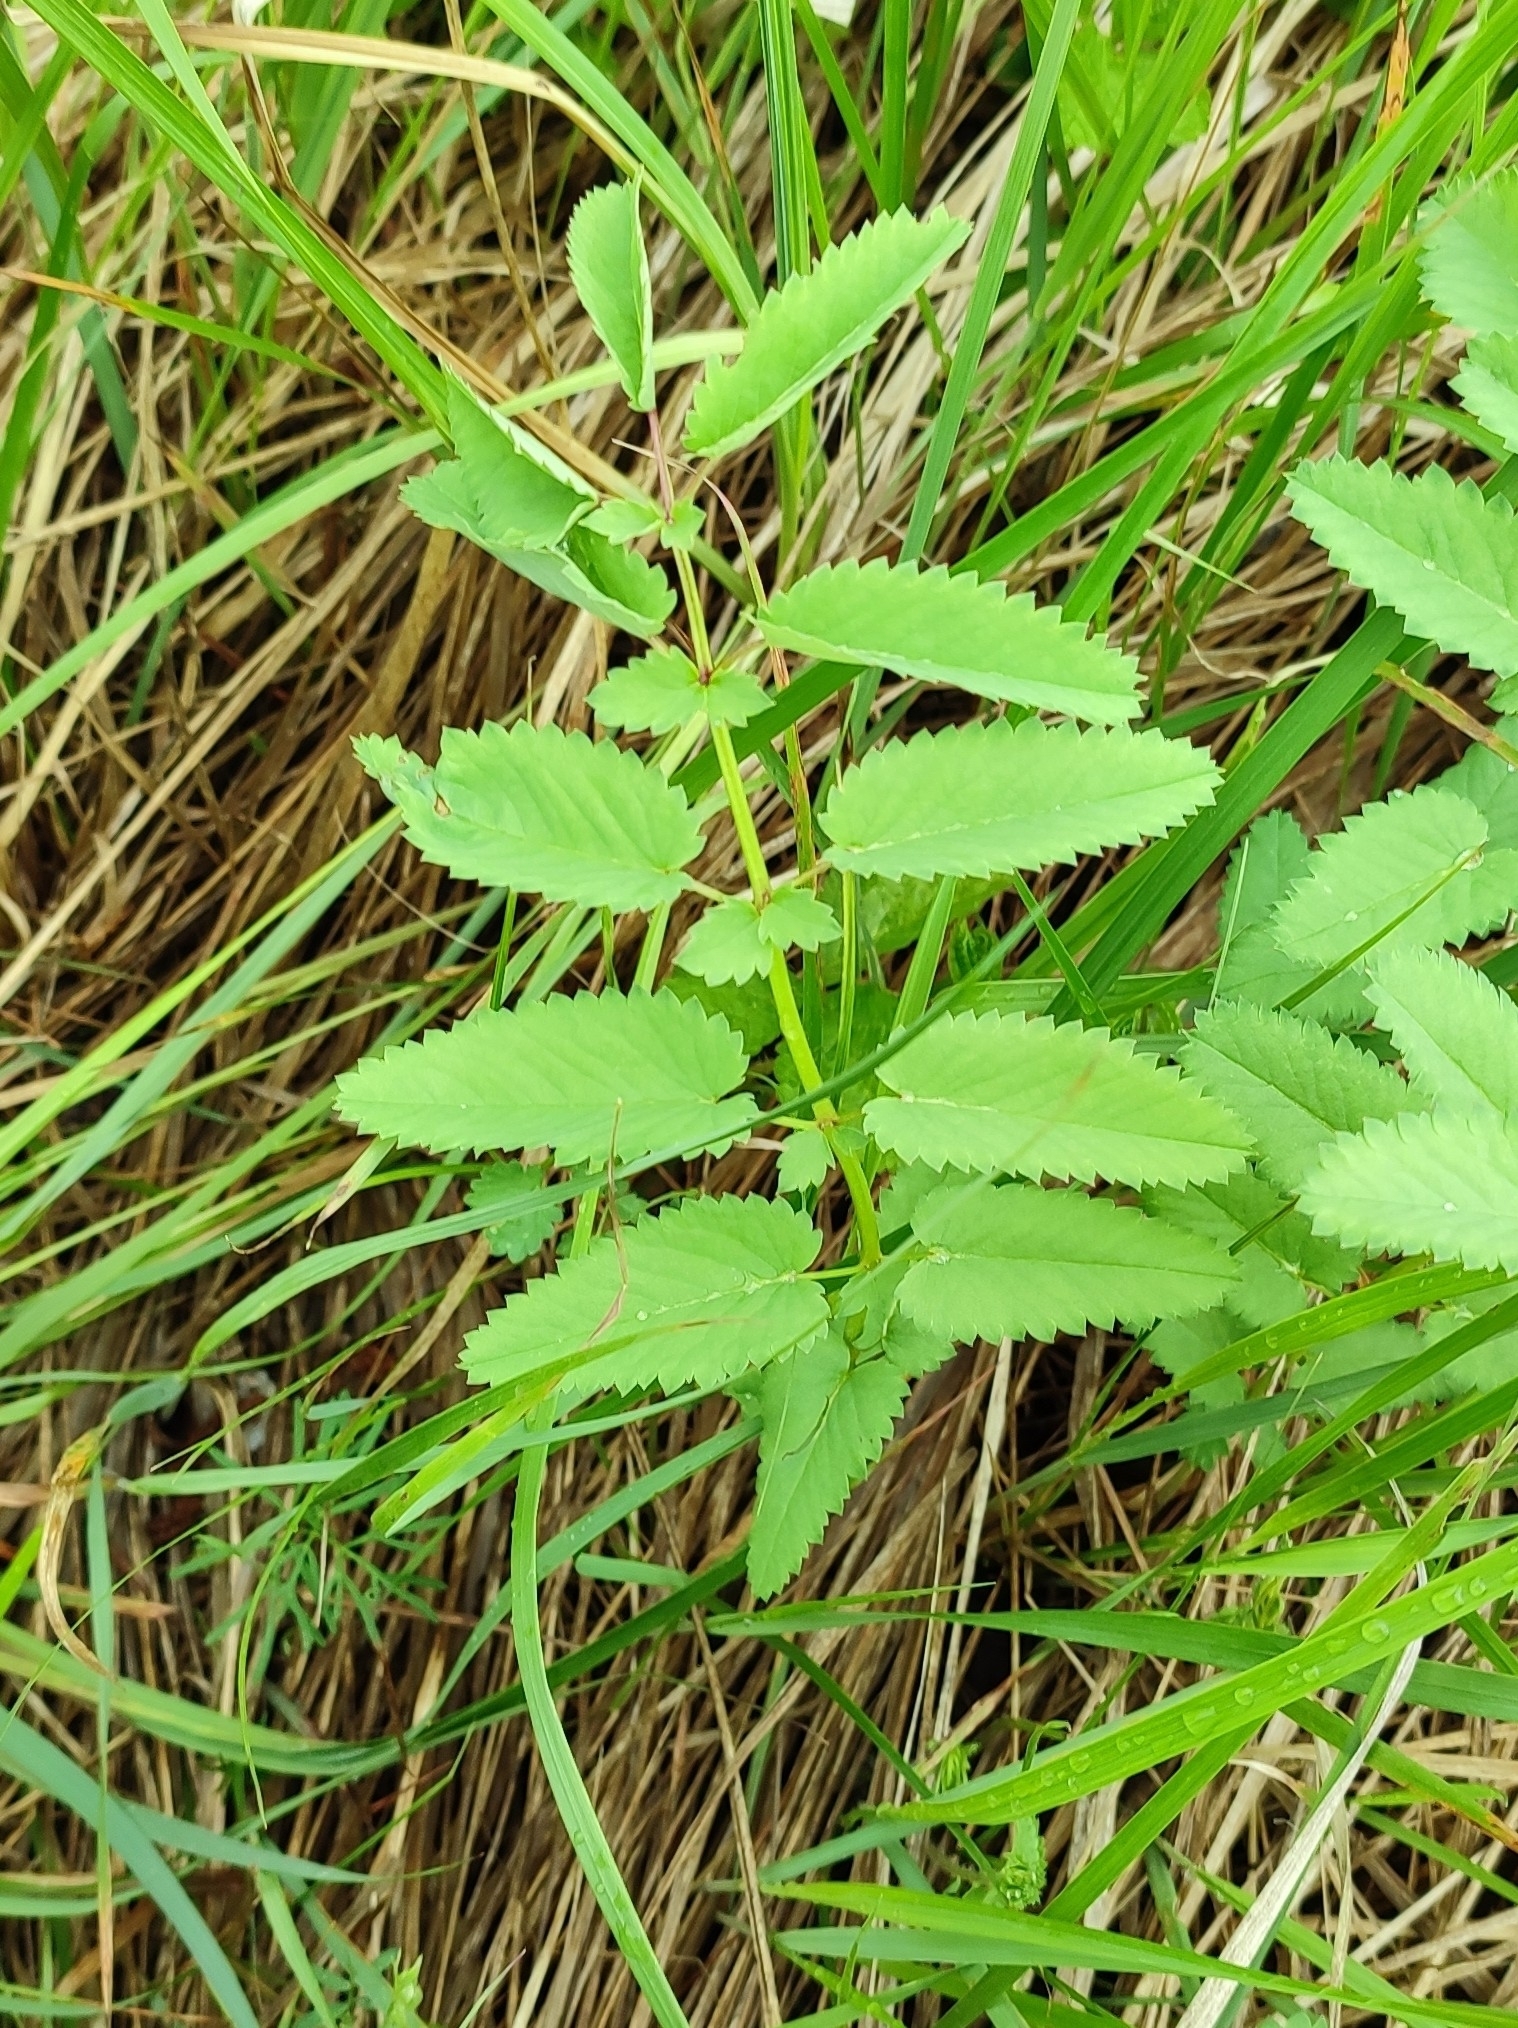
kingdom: Plantae
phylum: Tracheophyta
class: Magnoliopsida
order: Rosales
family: Rosaceae
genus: Sanguisorba
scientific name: Sanguisorba officinalis
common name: Great burnet
